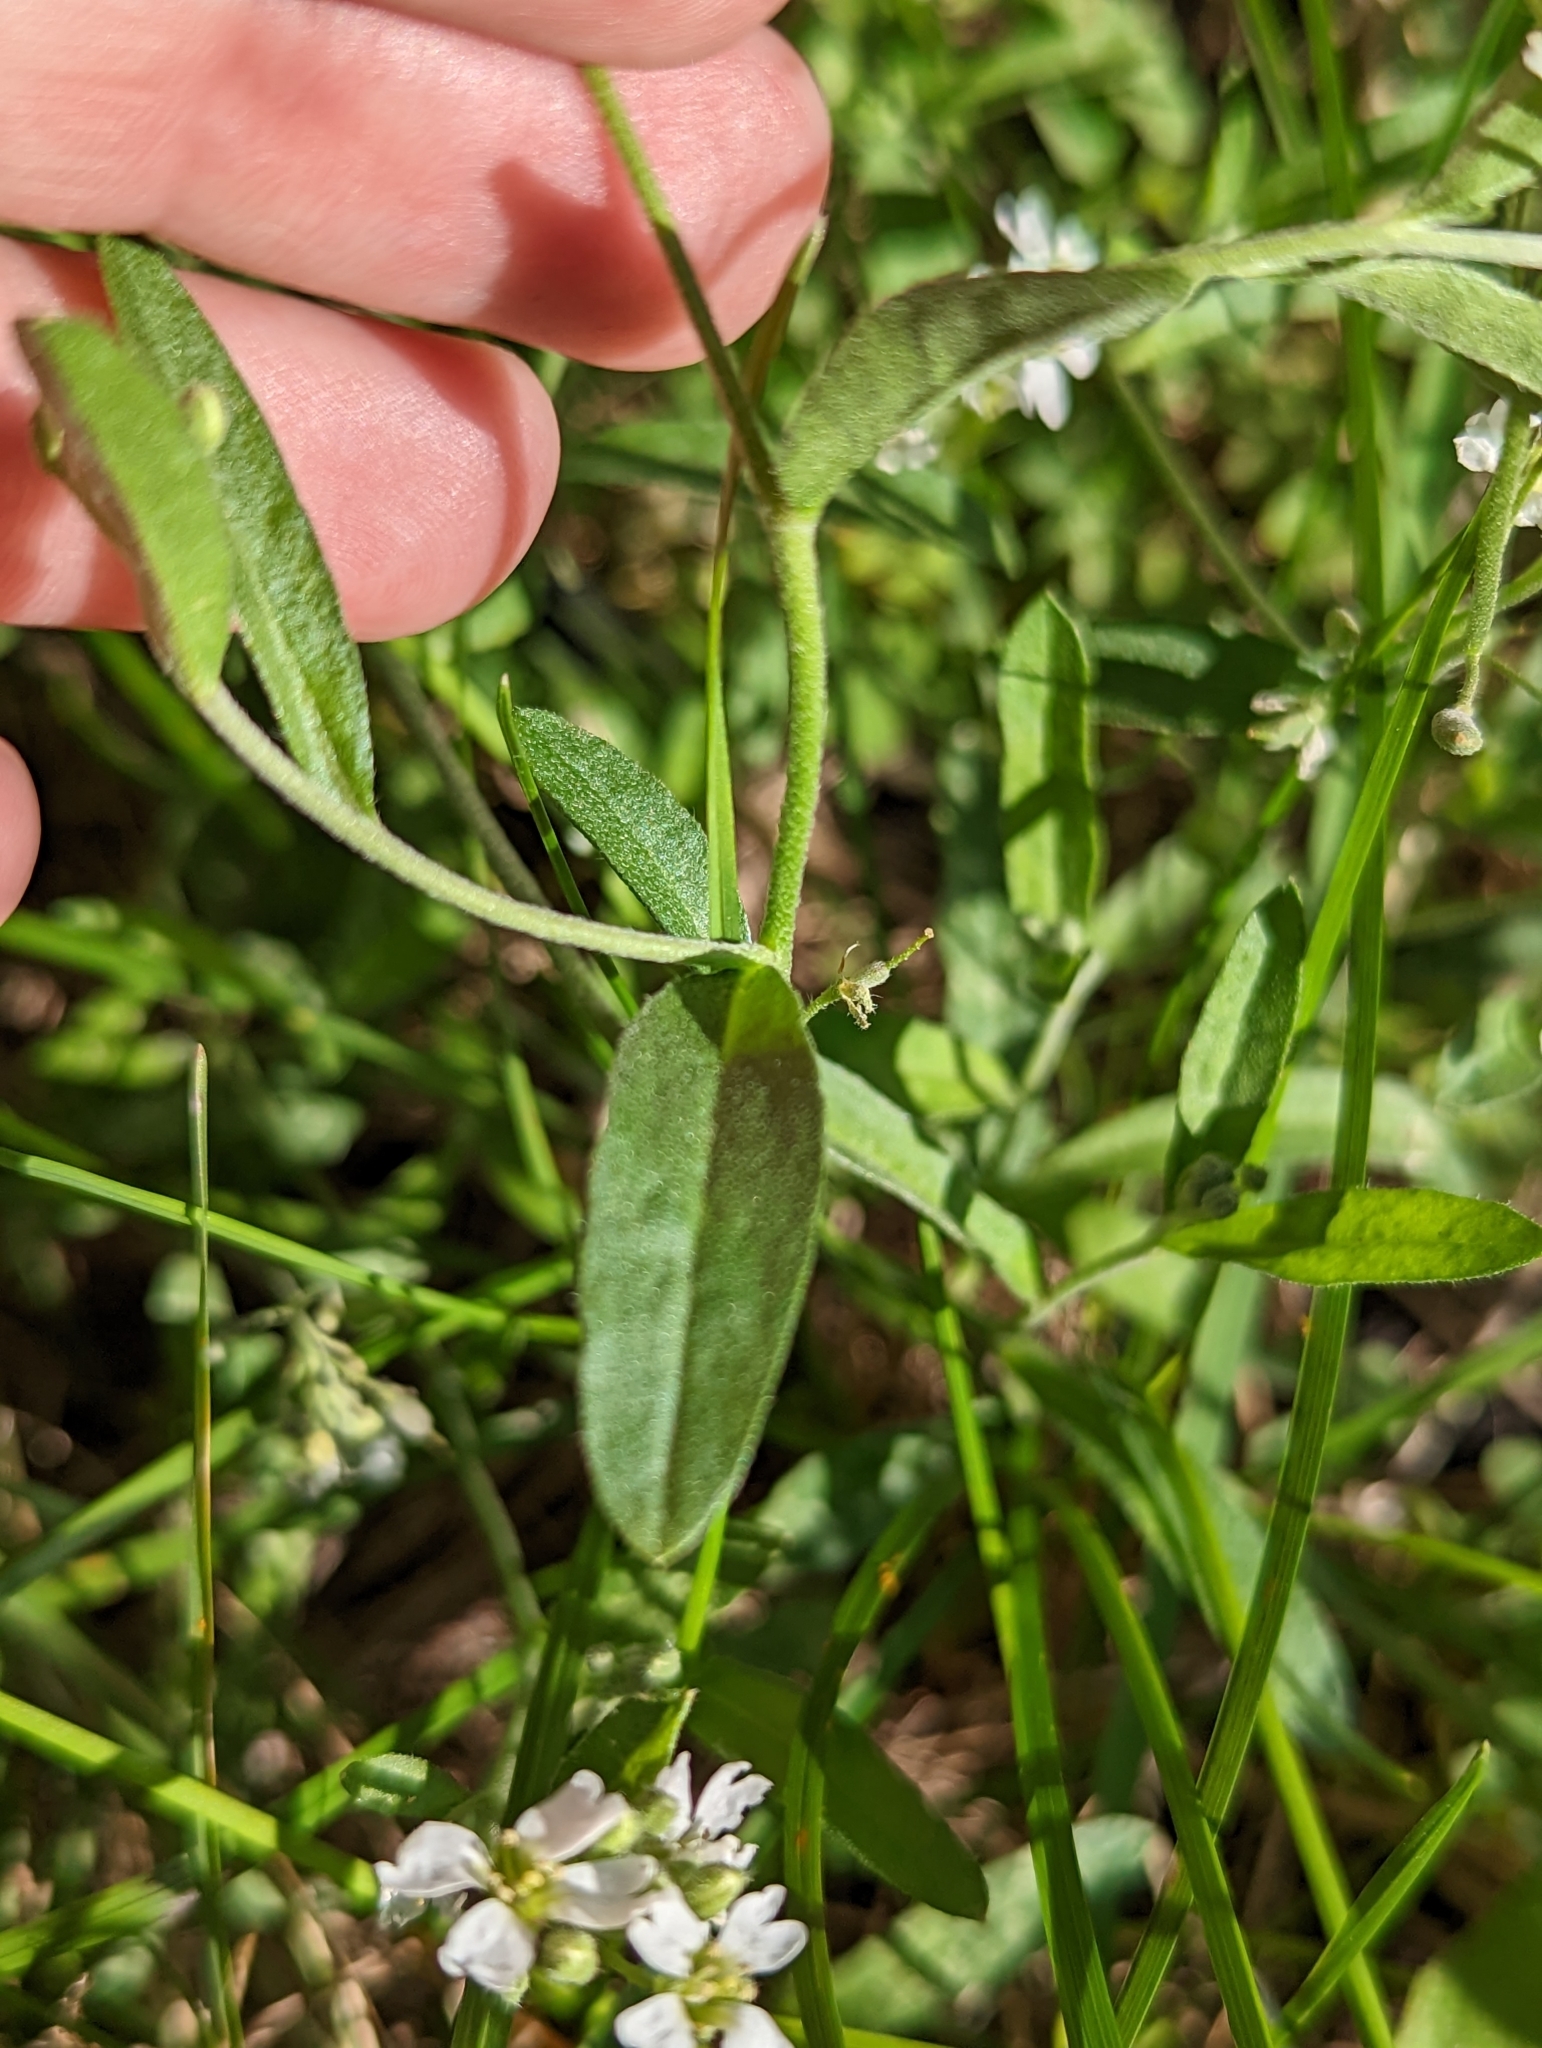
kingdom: Plantae
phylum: Tracheophyta
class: Magnoliopsida
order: Brassicales
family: Brassicaceae
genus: Berteroa
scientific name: Berteroa incana
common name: Hoary alison
